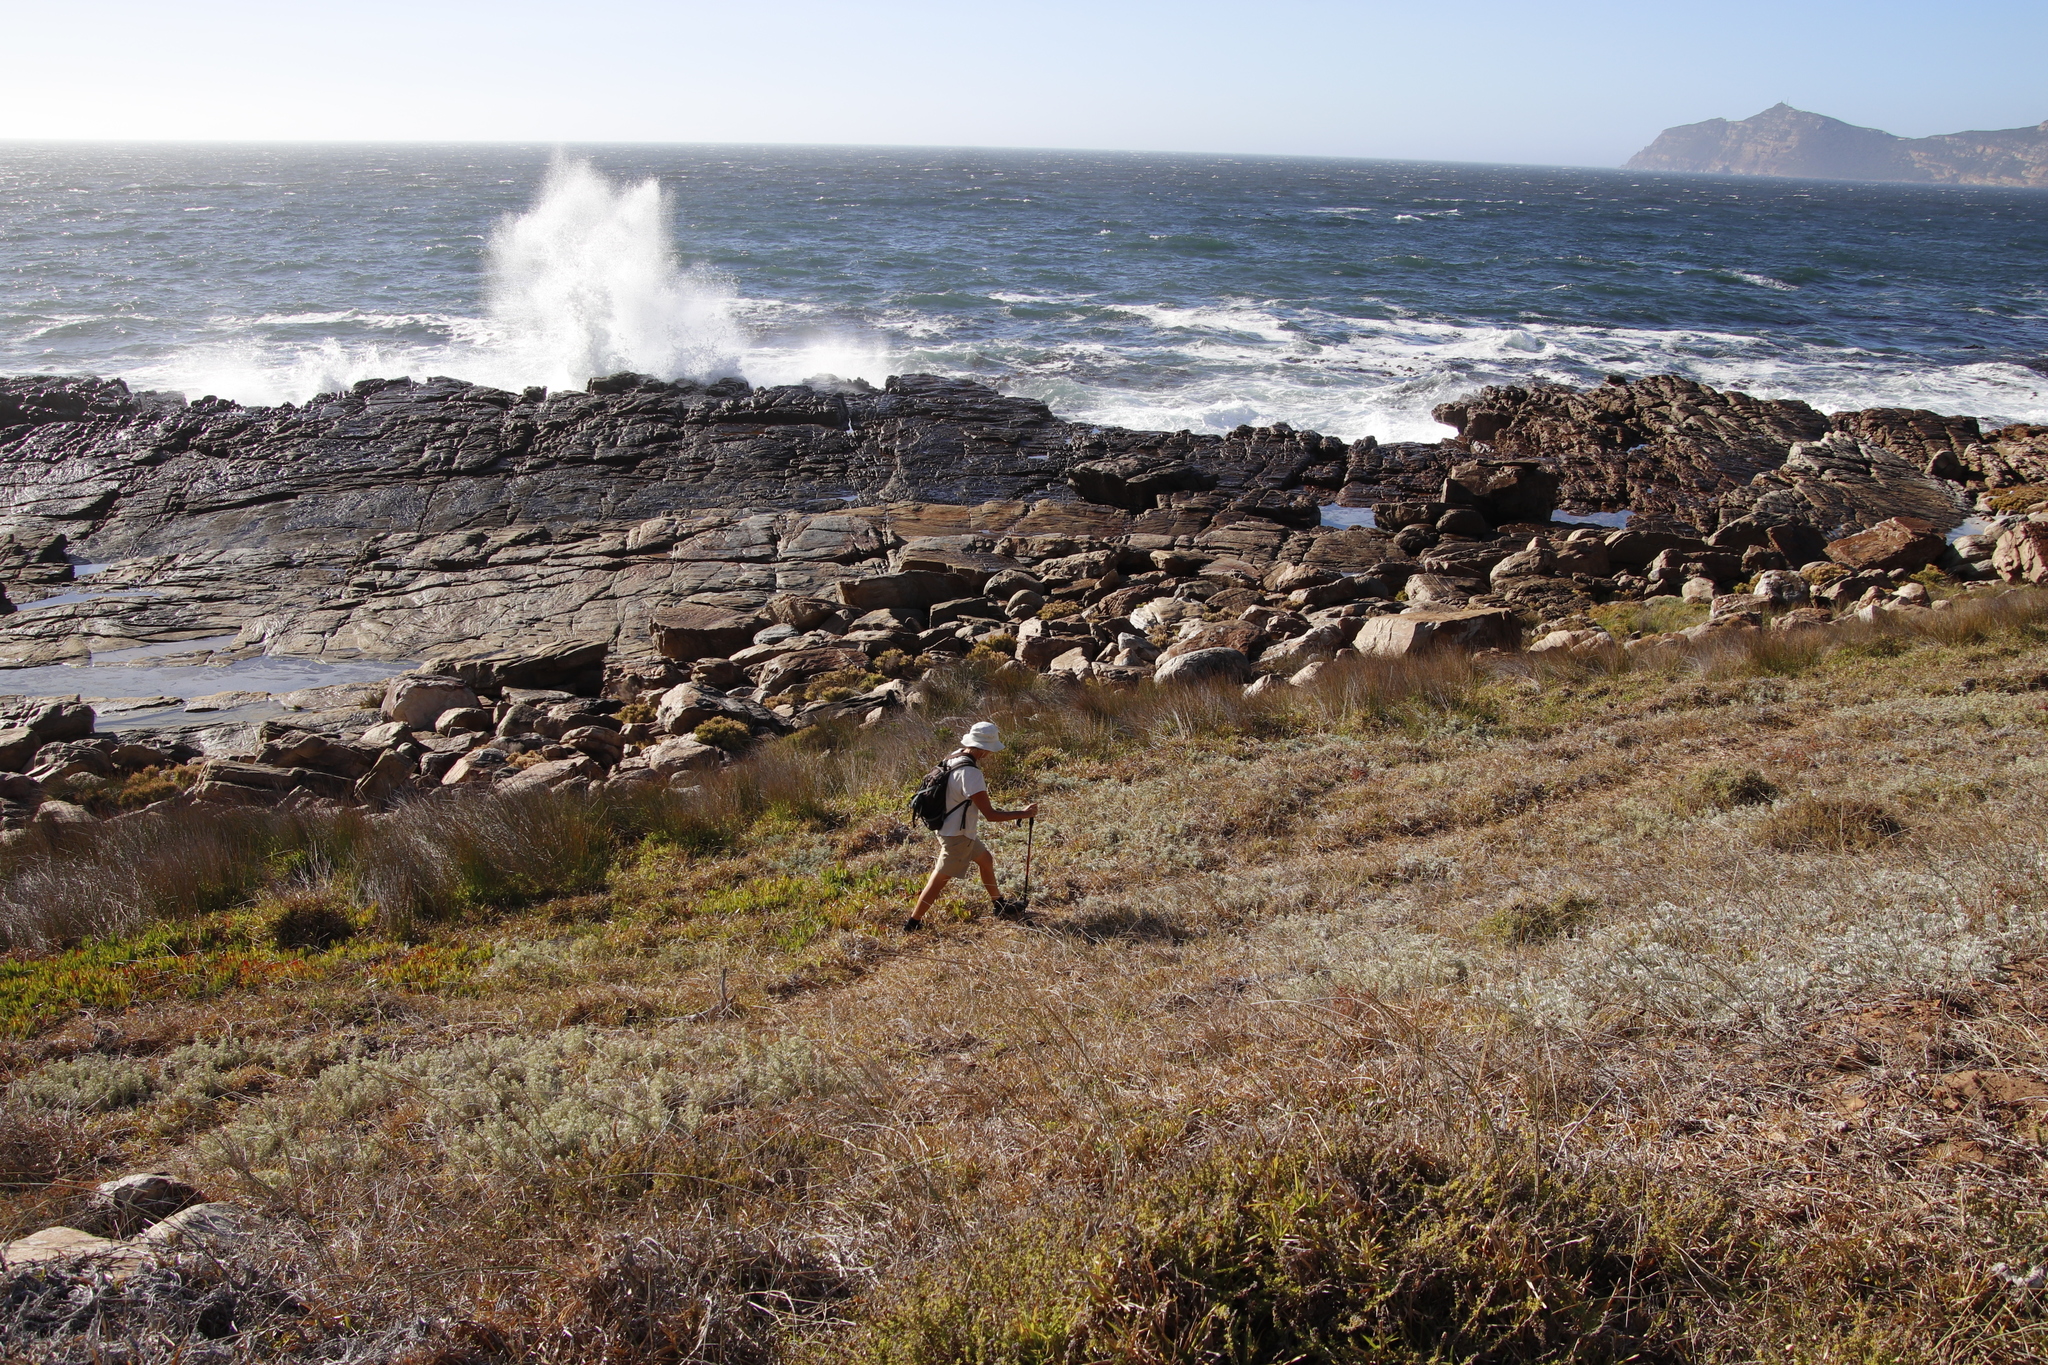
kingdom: Plantae
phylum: Tracheophyta
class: Liliopsida
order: Poales
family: Poaceae
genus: Stenotaphrum
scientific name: Stenotaphrum secundatum
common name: St. augustine grass
